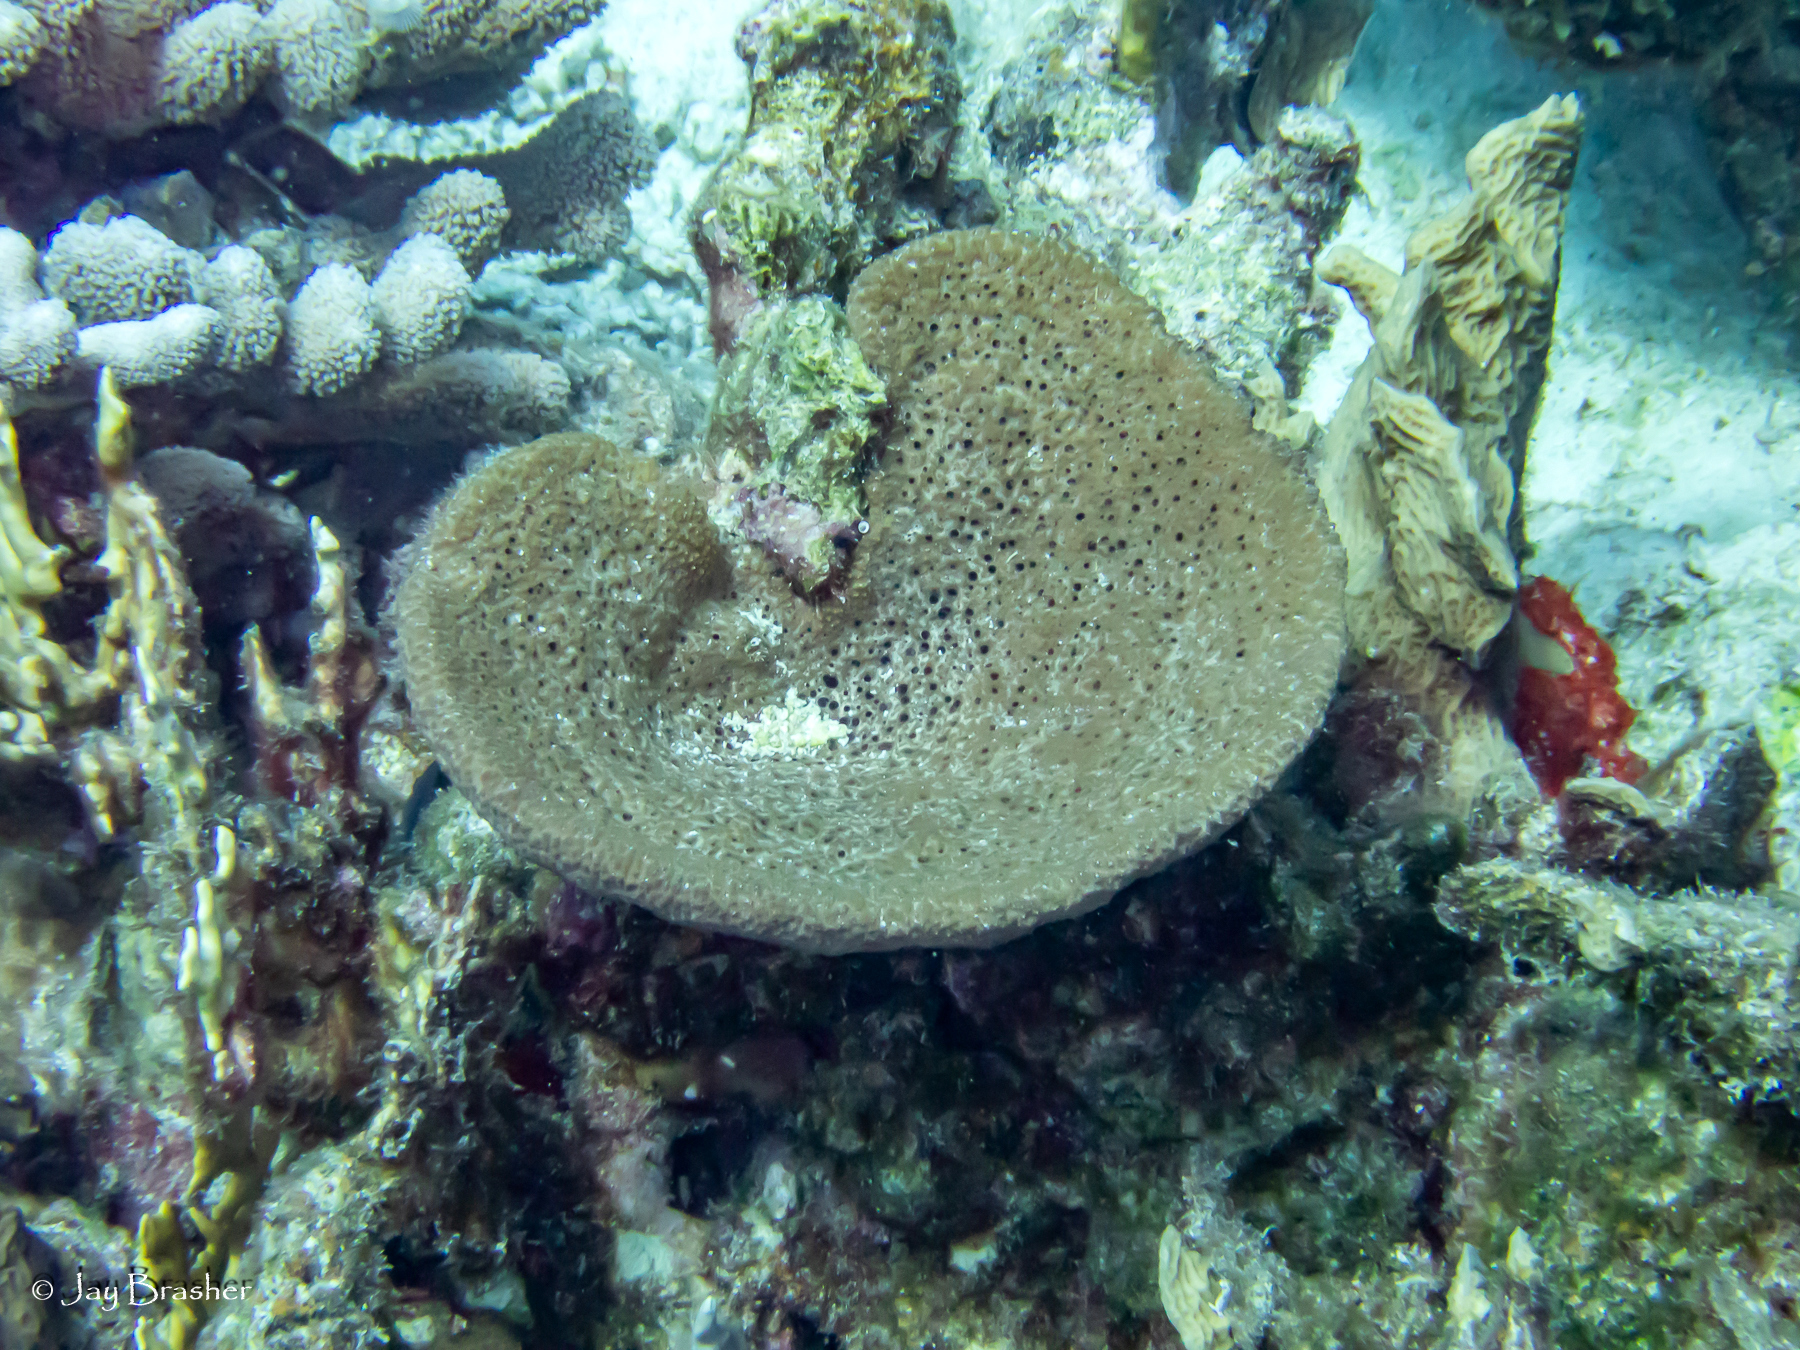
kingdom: Animalia
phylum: Porifera
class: Demospongiae
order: Dictyoceratida
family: Irciniidae
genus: Ircinia
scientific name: Ircinia campana
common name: Vase sponge
